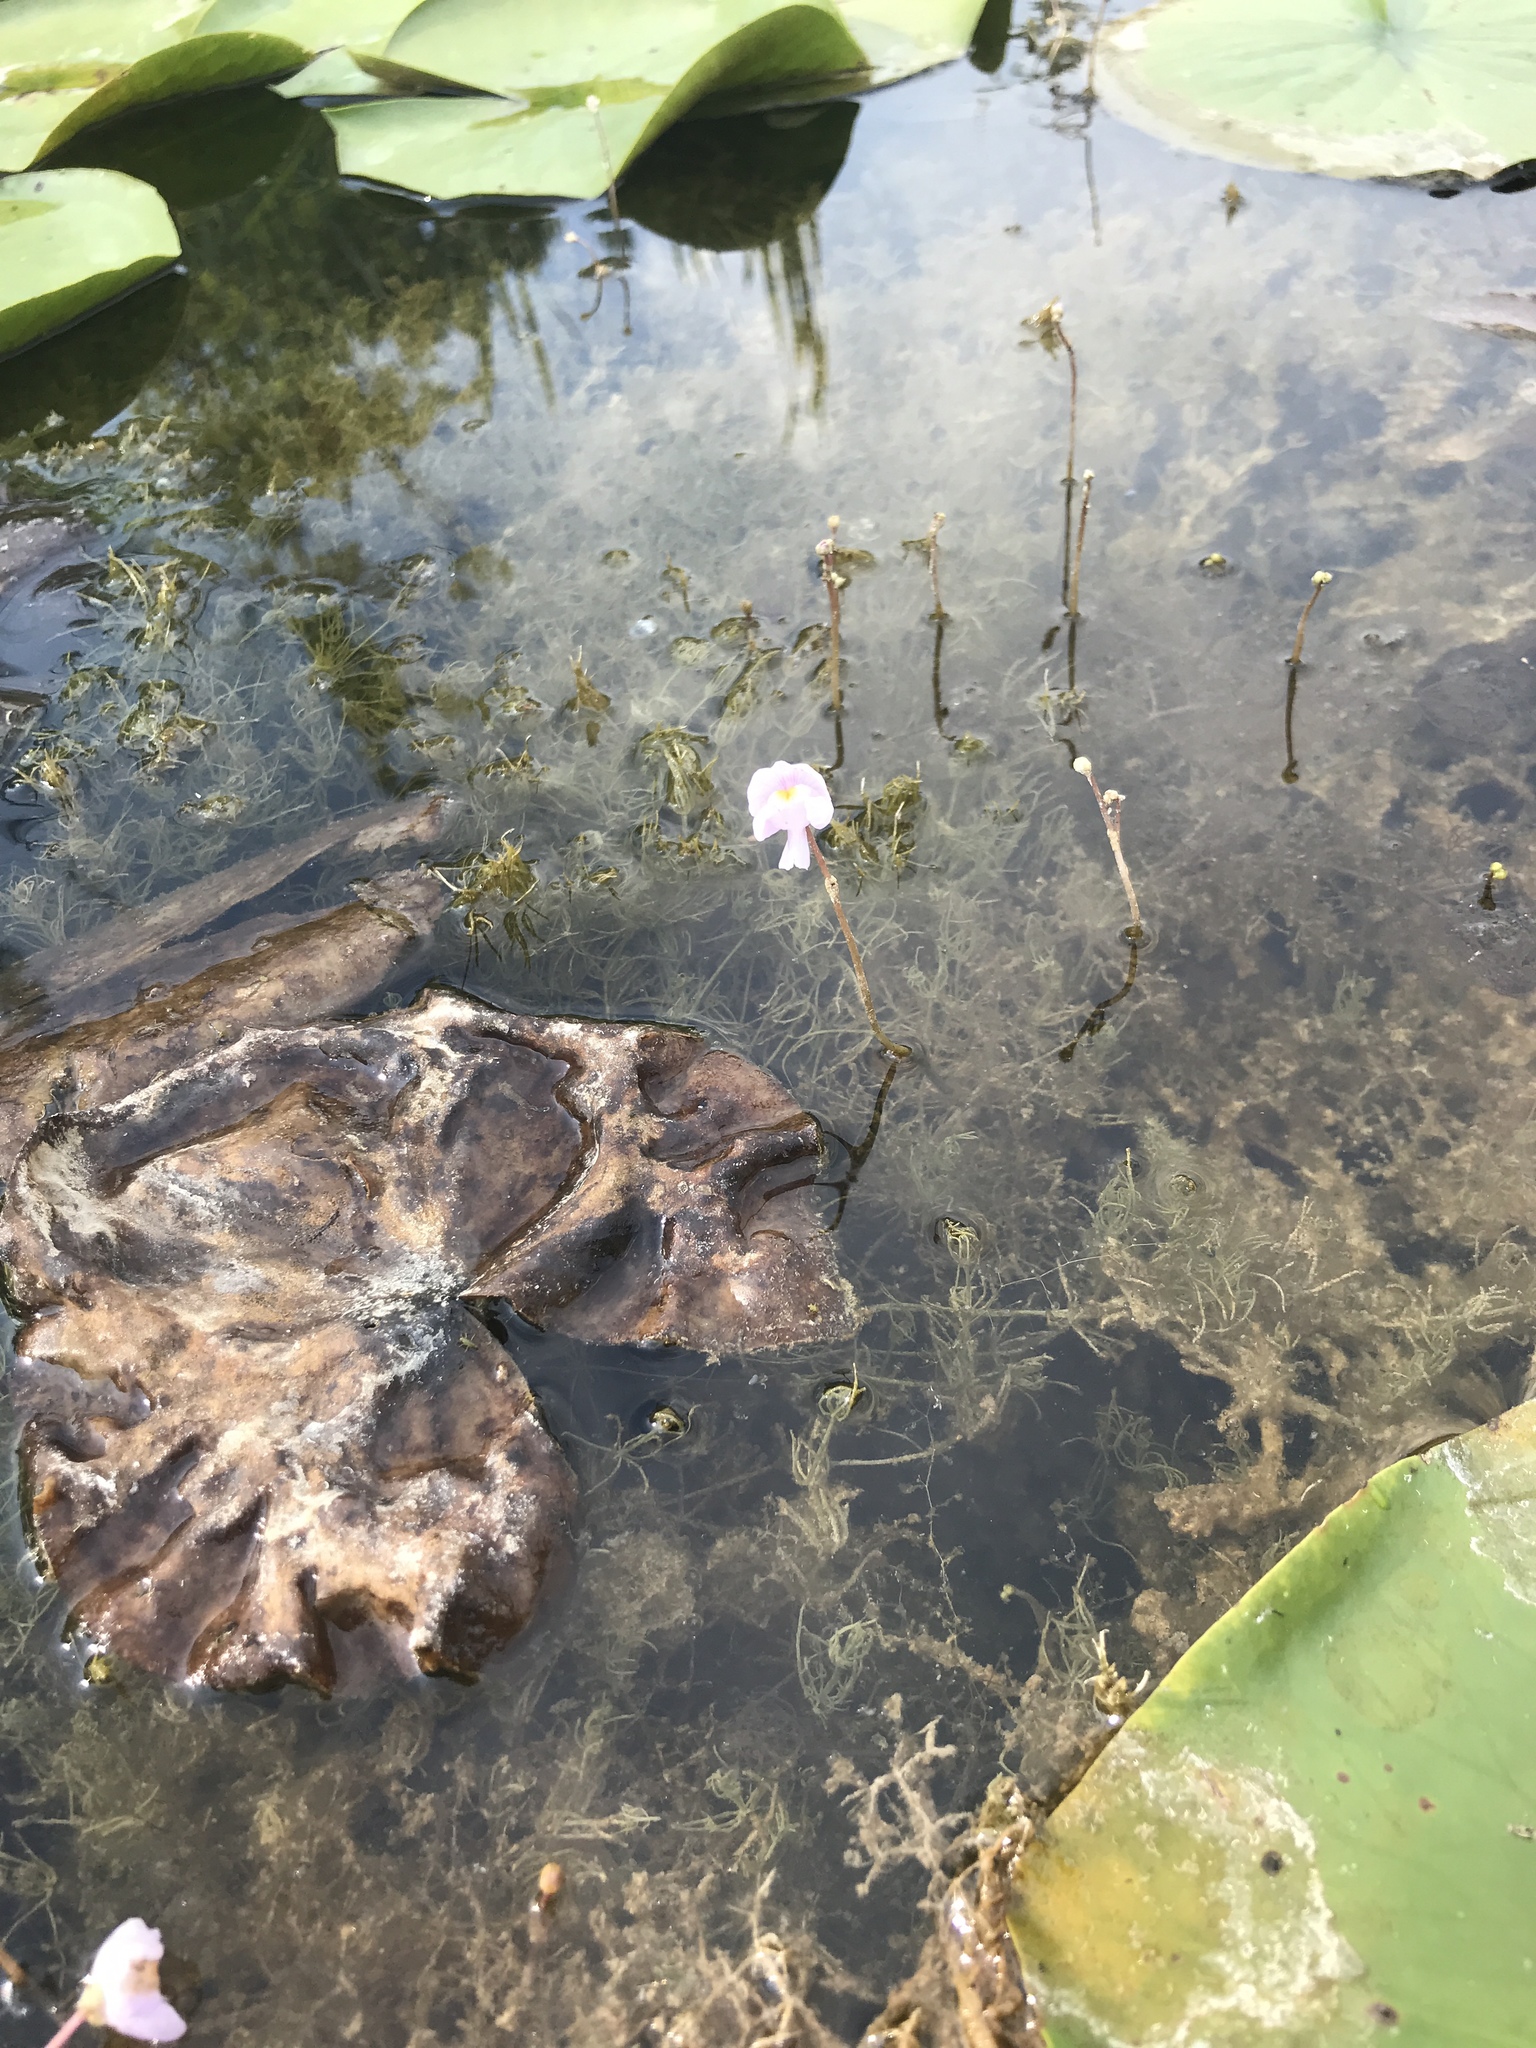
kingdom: Plantae
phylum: Tracheophyta
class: Magnoliopsida
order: Lamiales
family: Lentibulariaceae
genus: Utricularia
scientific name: Utricularia purpurea
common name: Eastern purple bladderwort
